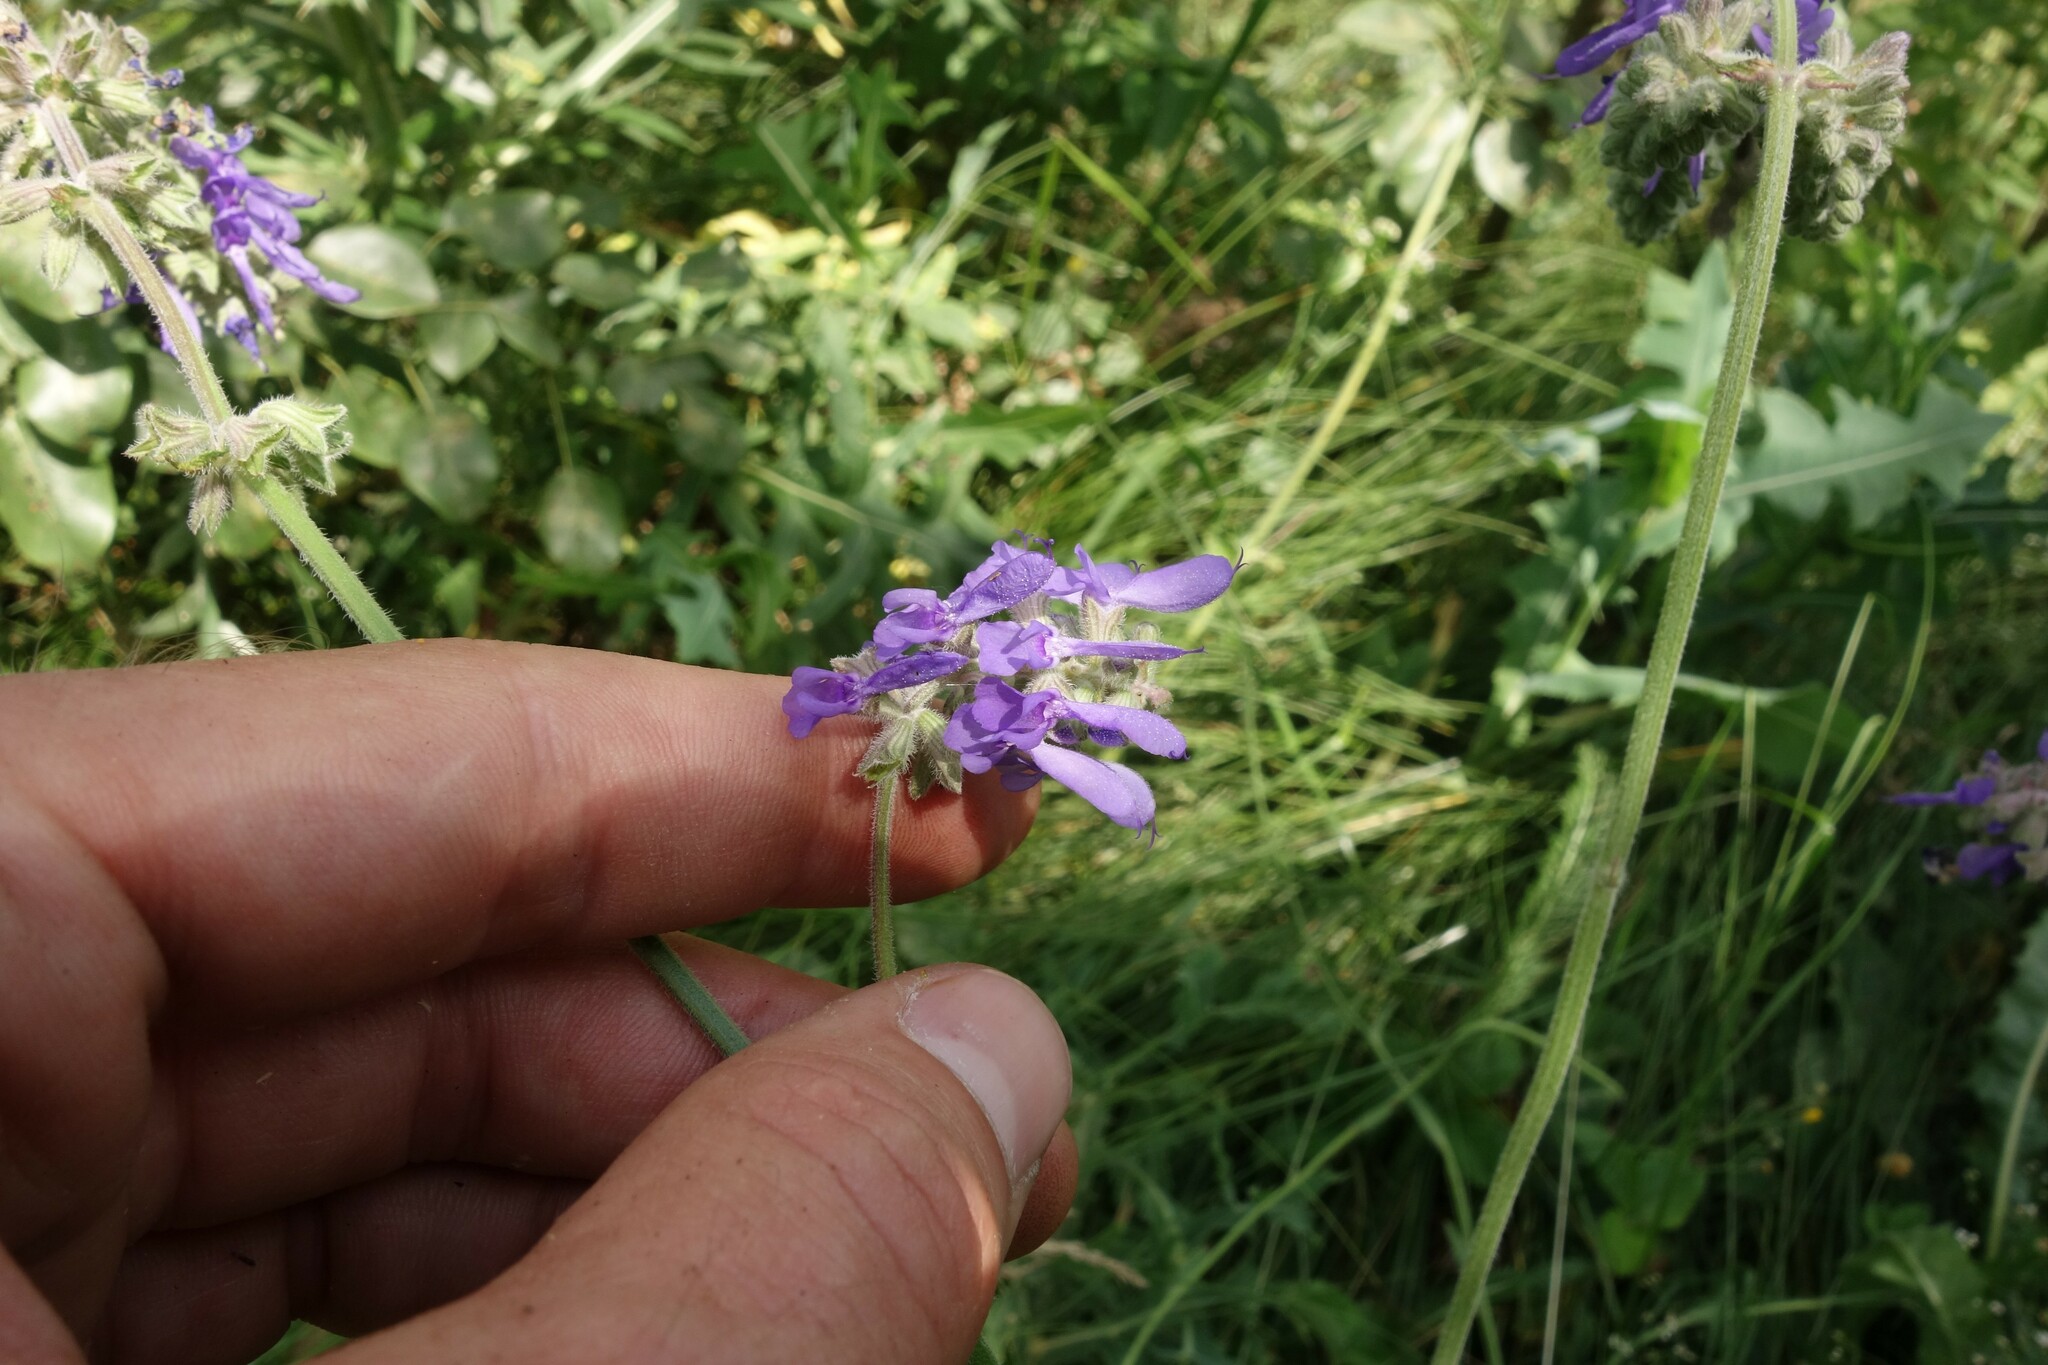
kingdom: Plantae
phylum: Tracheophyta
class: Magnoliopsida
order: Lamiales
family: Lamiaceae
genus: Salvia
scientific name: Salvia nutans
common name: Nodding sage
